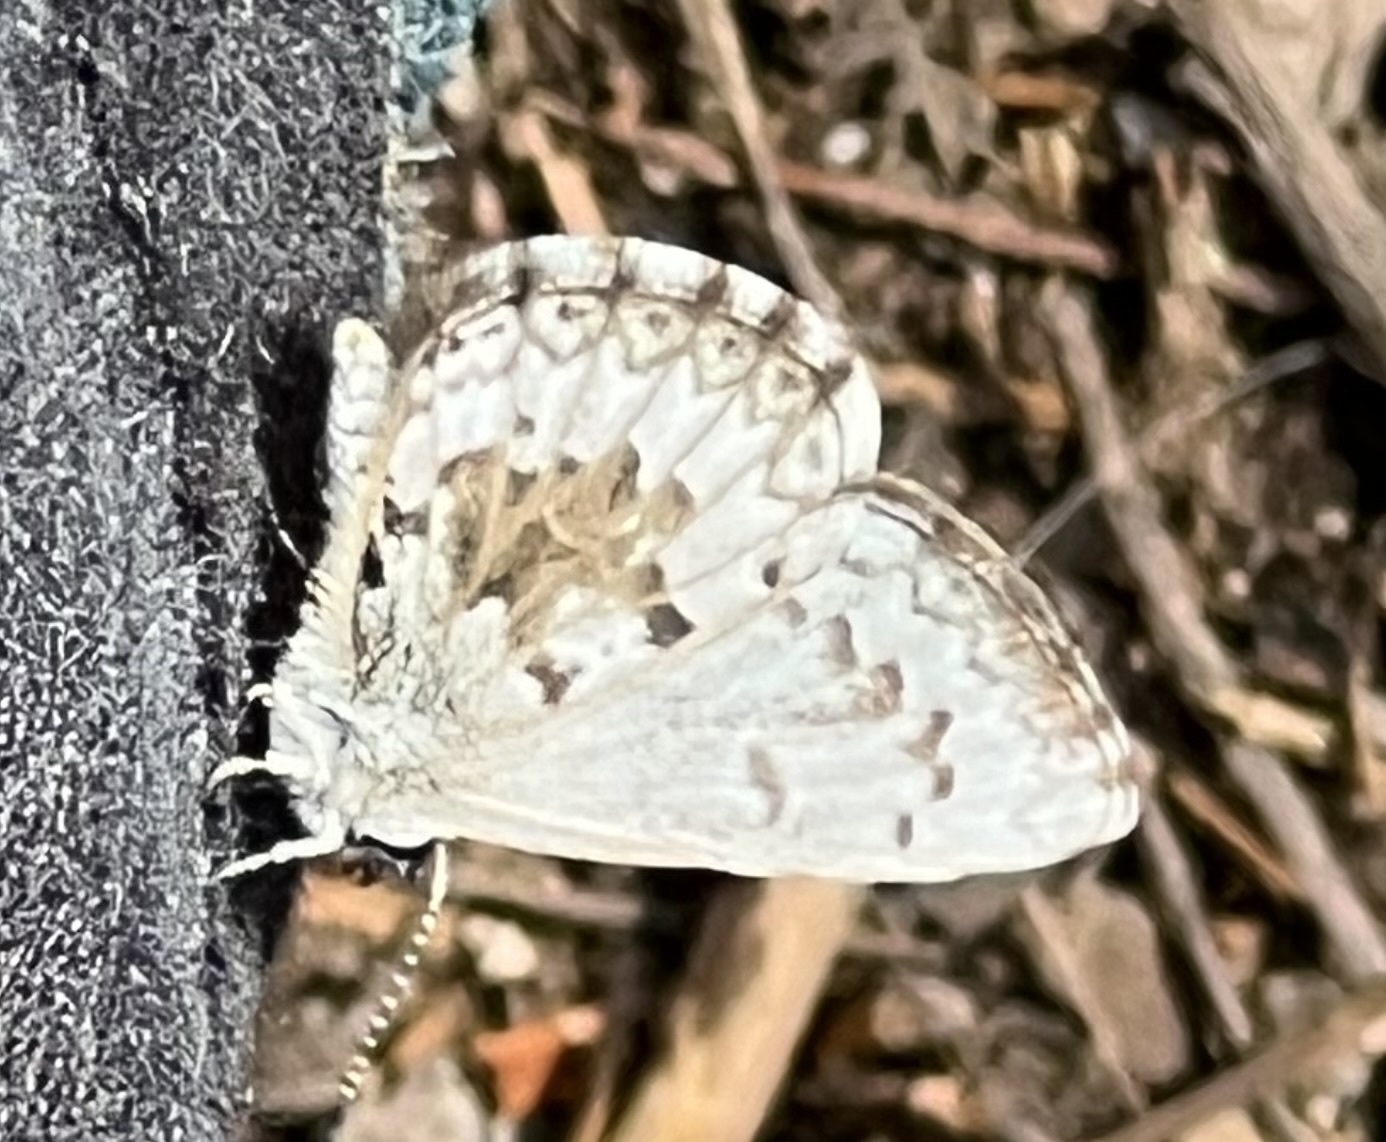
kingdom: Animalia
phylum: Arthropoda
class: Insecta
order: Lepidoptera
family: Lycaenidae
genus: Celastrina
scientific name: Celastrina lucia
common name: Lucia azure
